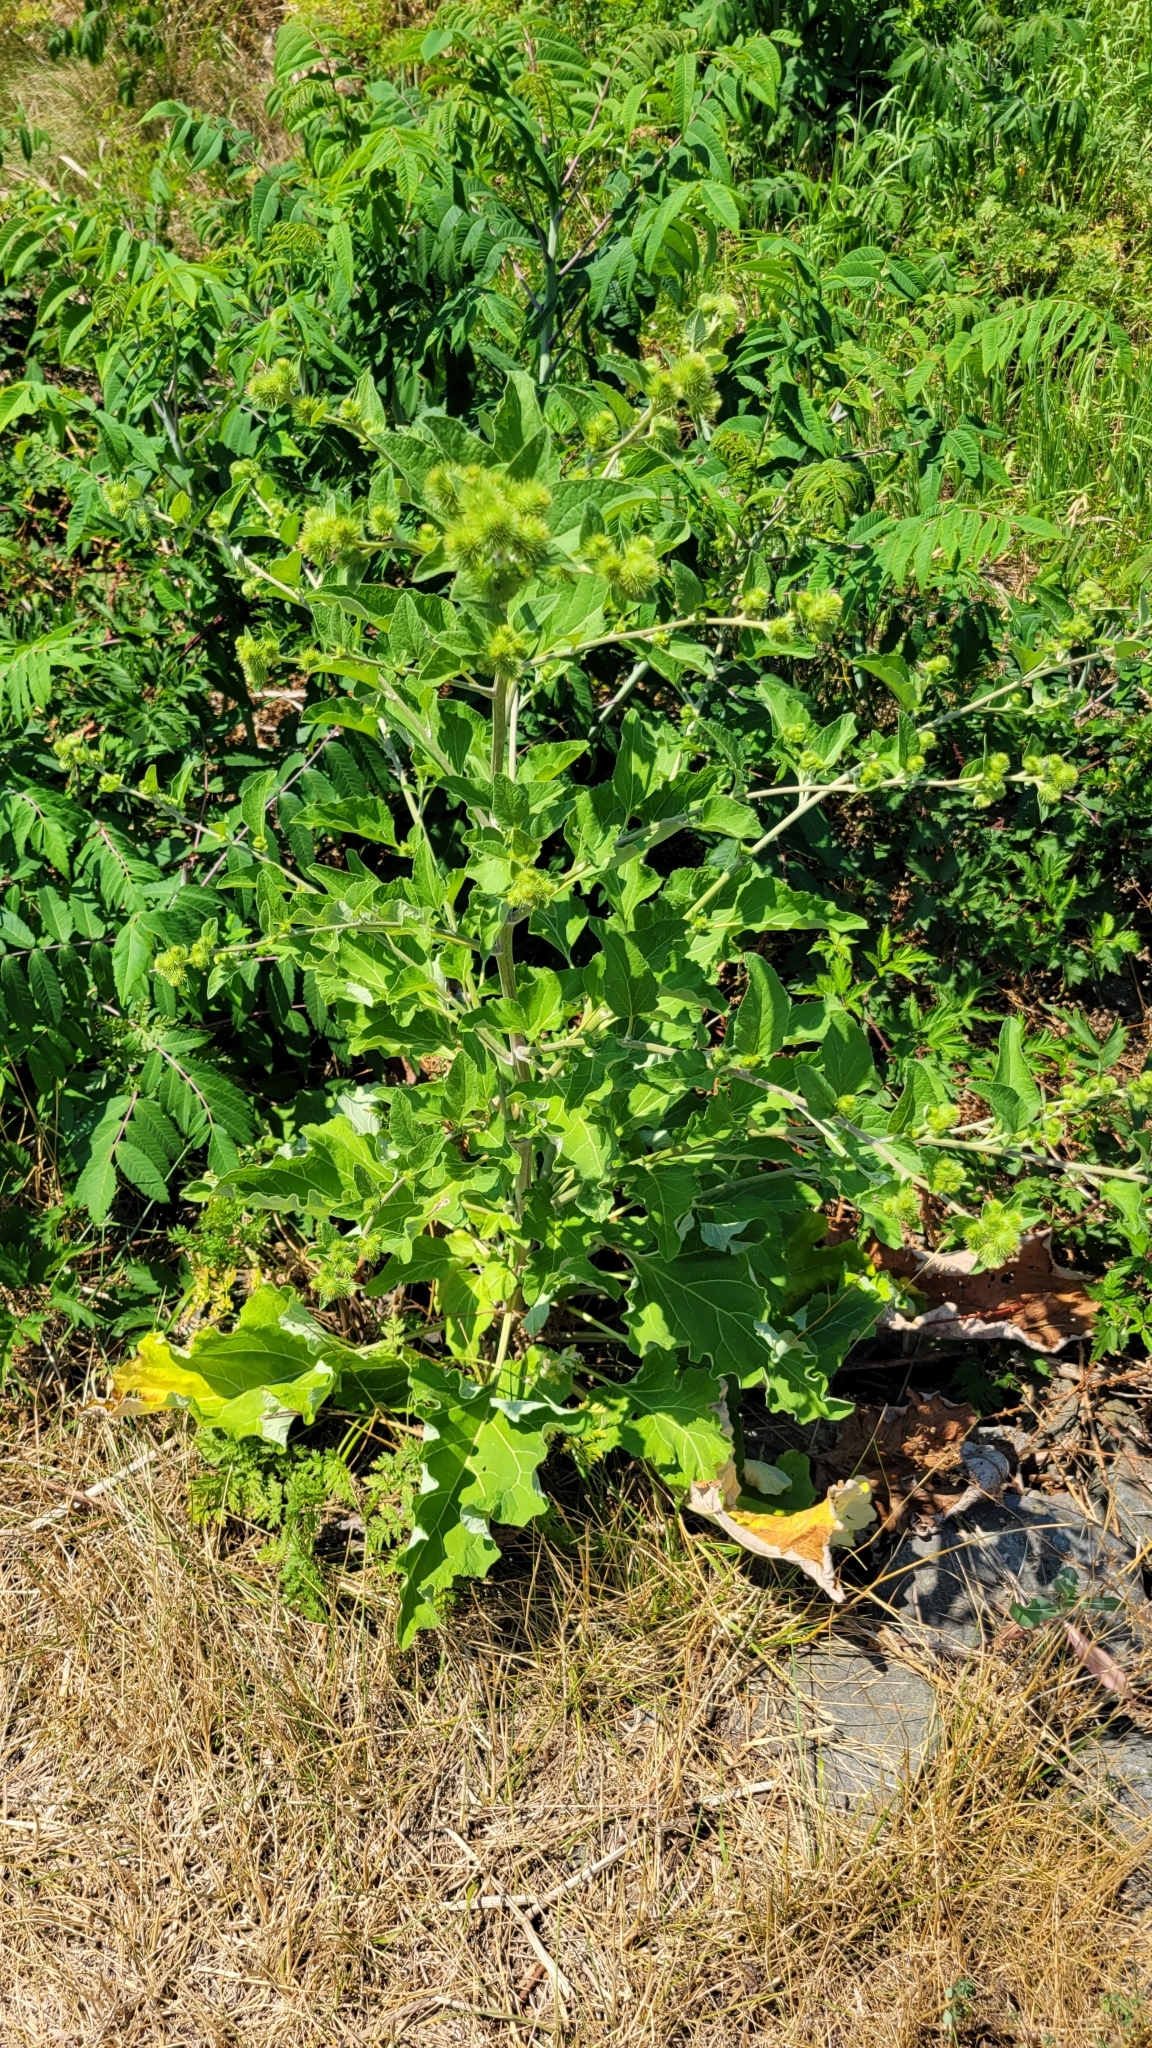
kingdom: Plantae
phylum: Tracheophyta
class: Magnoliopsida
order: Asterales
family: Asteraceae
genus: Arctium
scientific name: Arctium minus
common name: Lesser burdock
